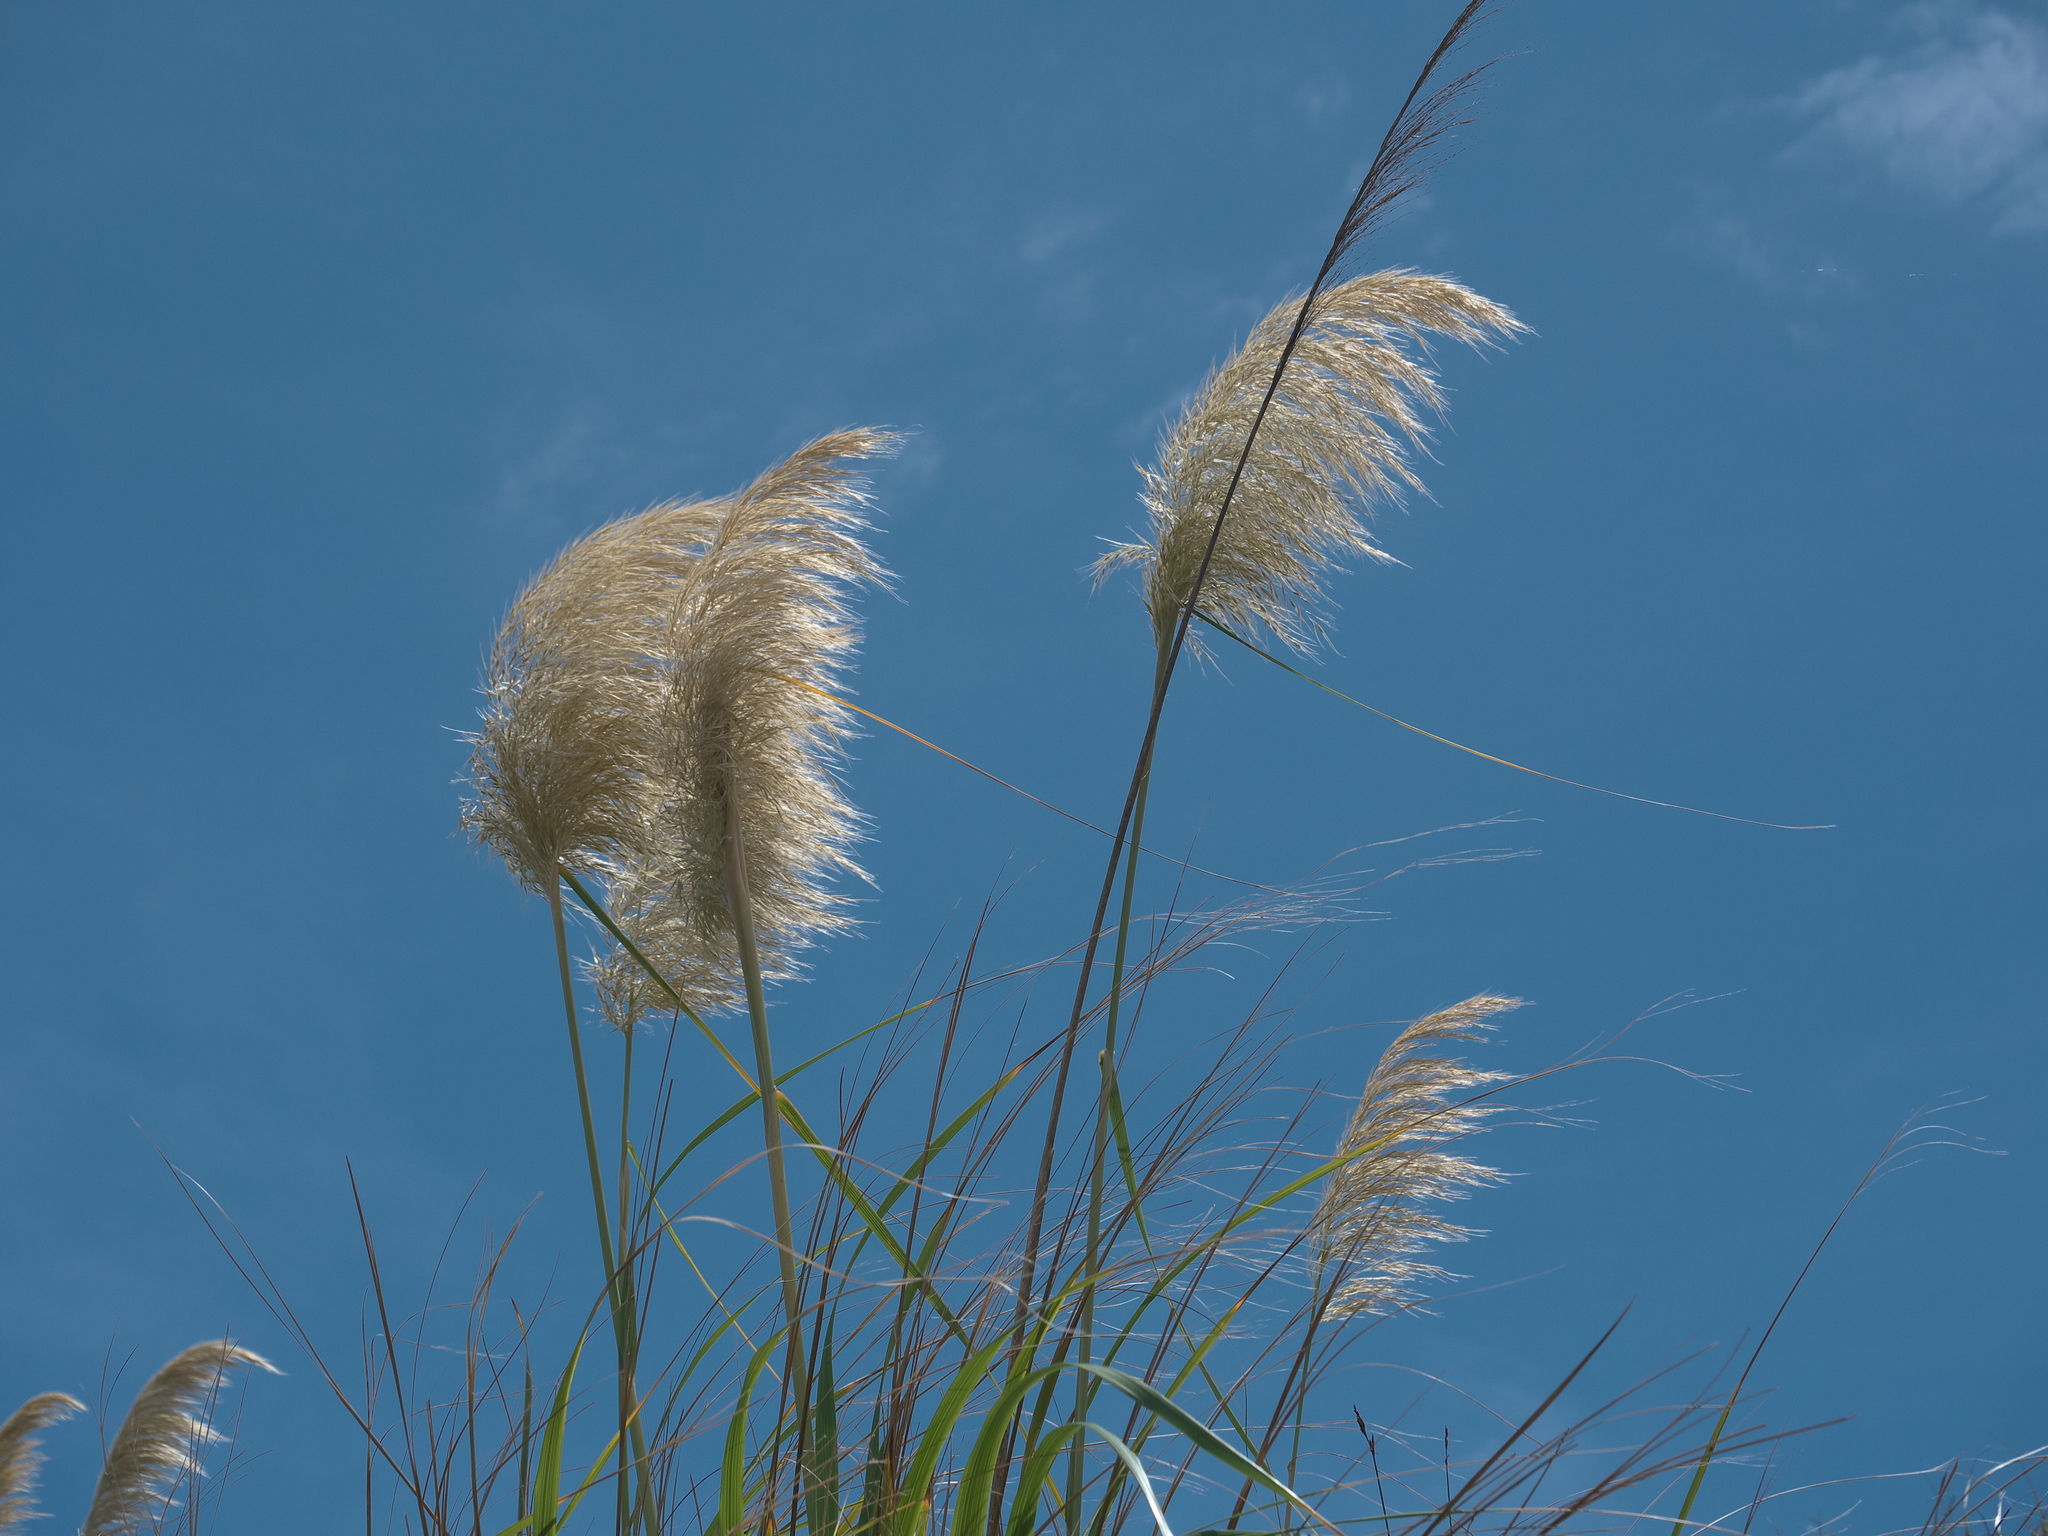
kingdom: Plantae
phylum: Tracheophyta
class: Liliopsida
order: Poales
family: Poaceae
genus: Austroderia
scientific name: Austroderia splendens
